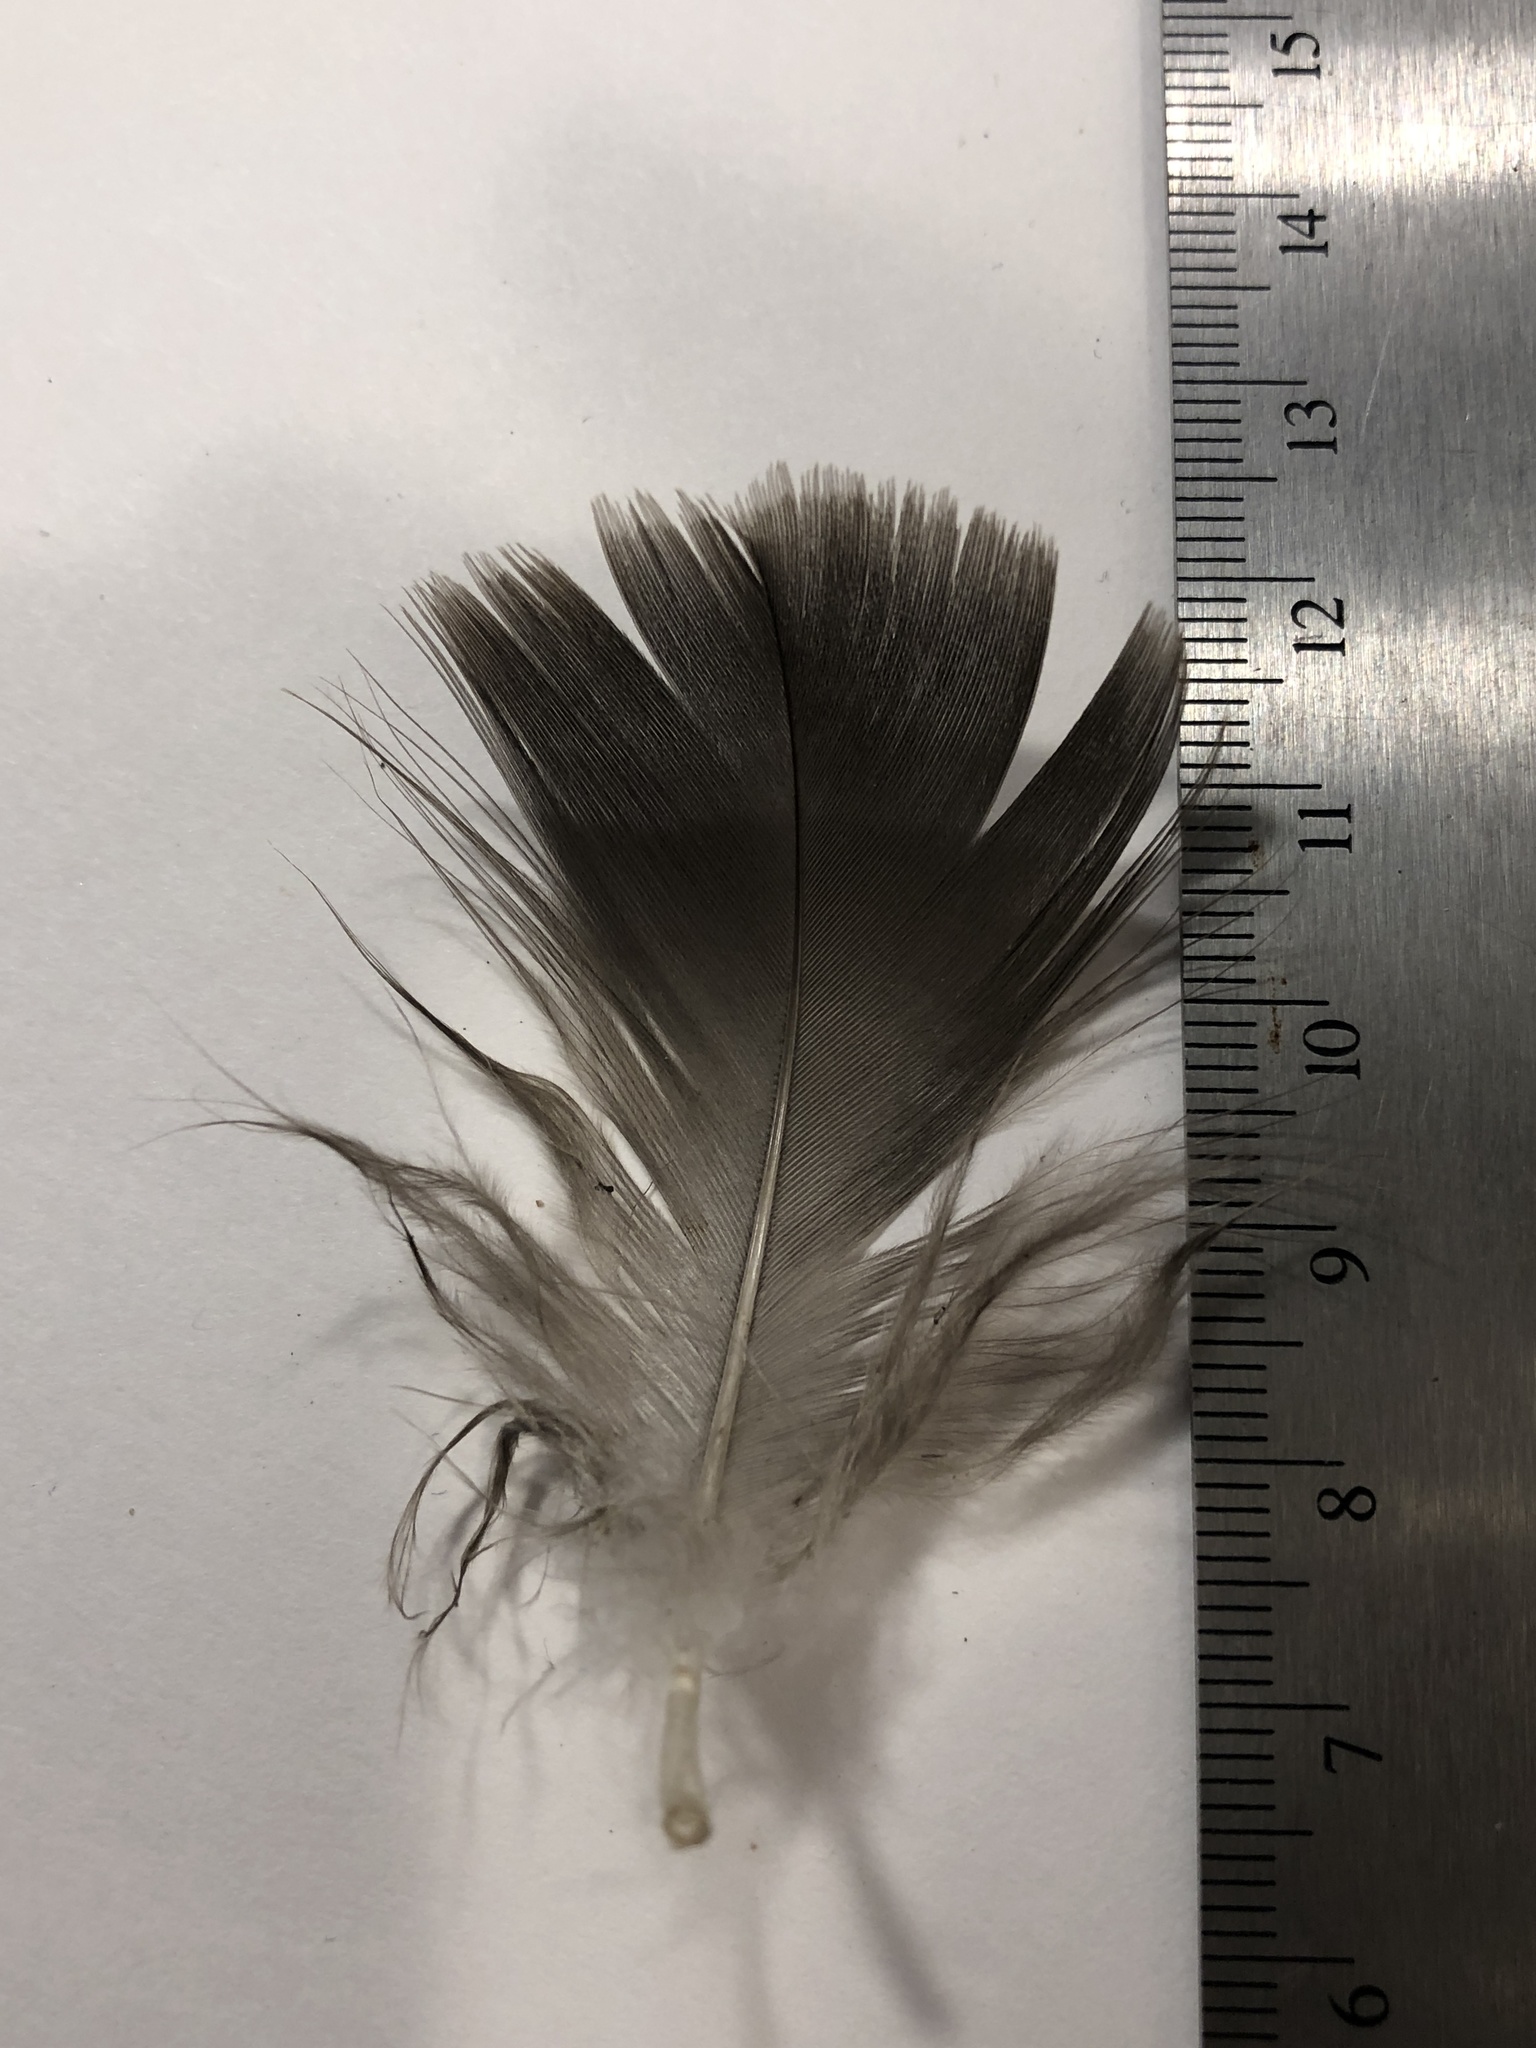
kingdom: Animalia
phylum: Chordata
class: Aves
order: Anseriformes
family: Anatidae
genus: Branta
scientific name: Branta canadensis
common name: Canada goose
